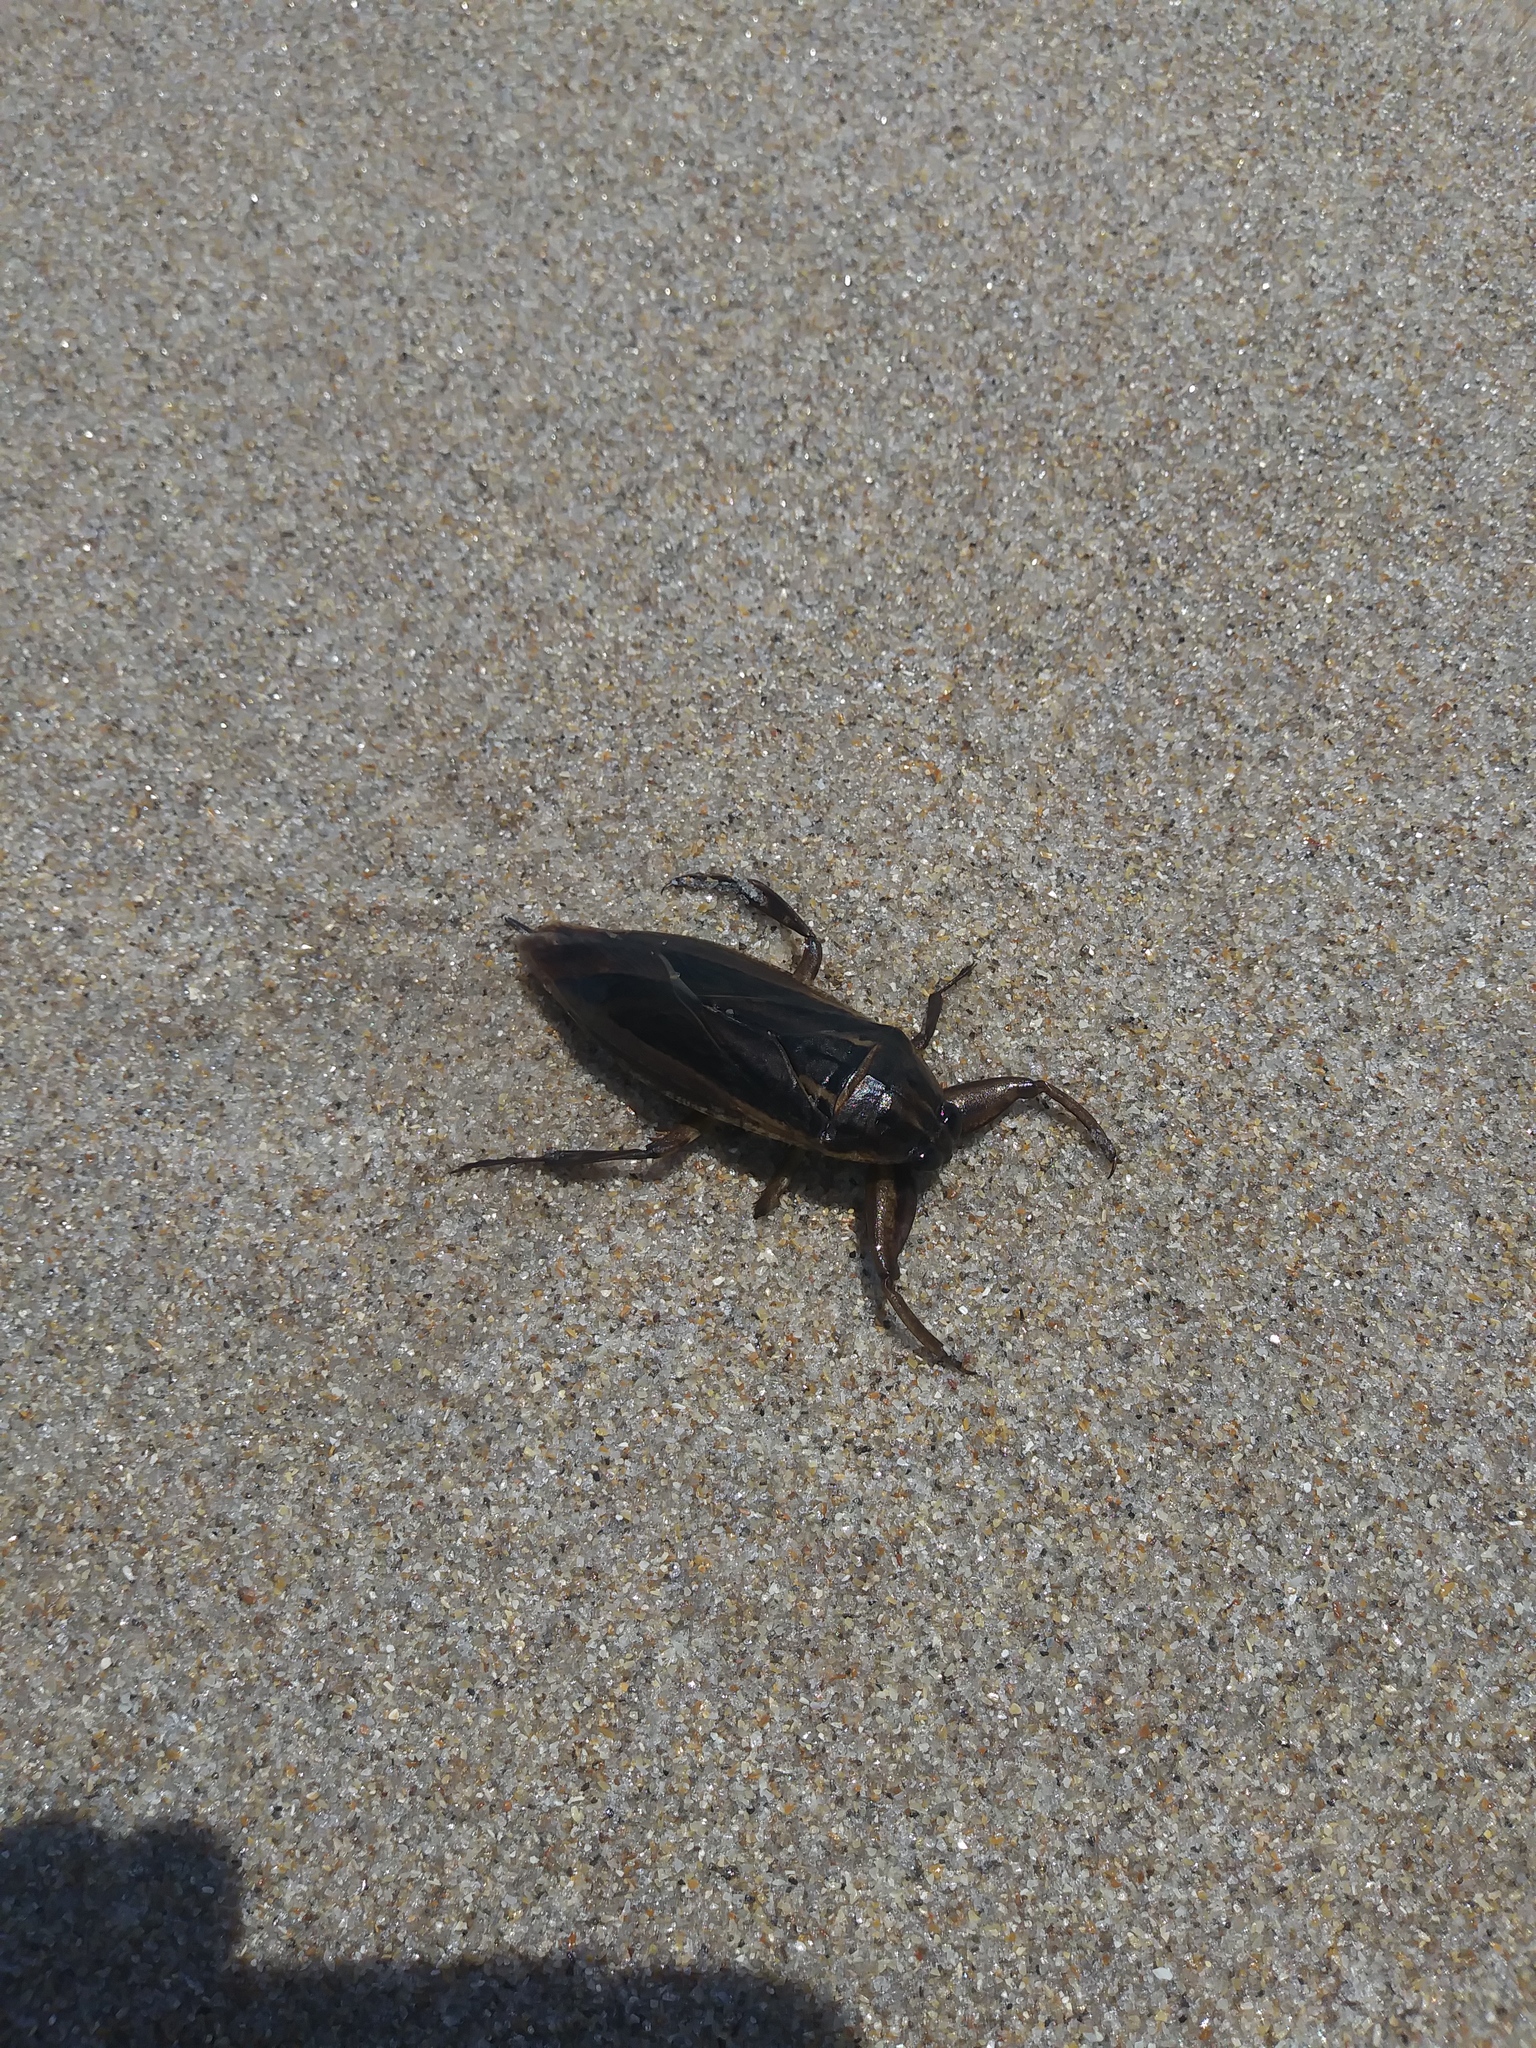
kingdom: Animalia
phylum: Arthropoda
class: Insecta
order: Hemiptera
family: Belostomatidae
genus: Lethocerus
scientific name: Lethocerus uhleri
